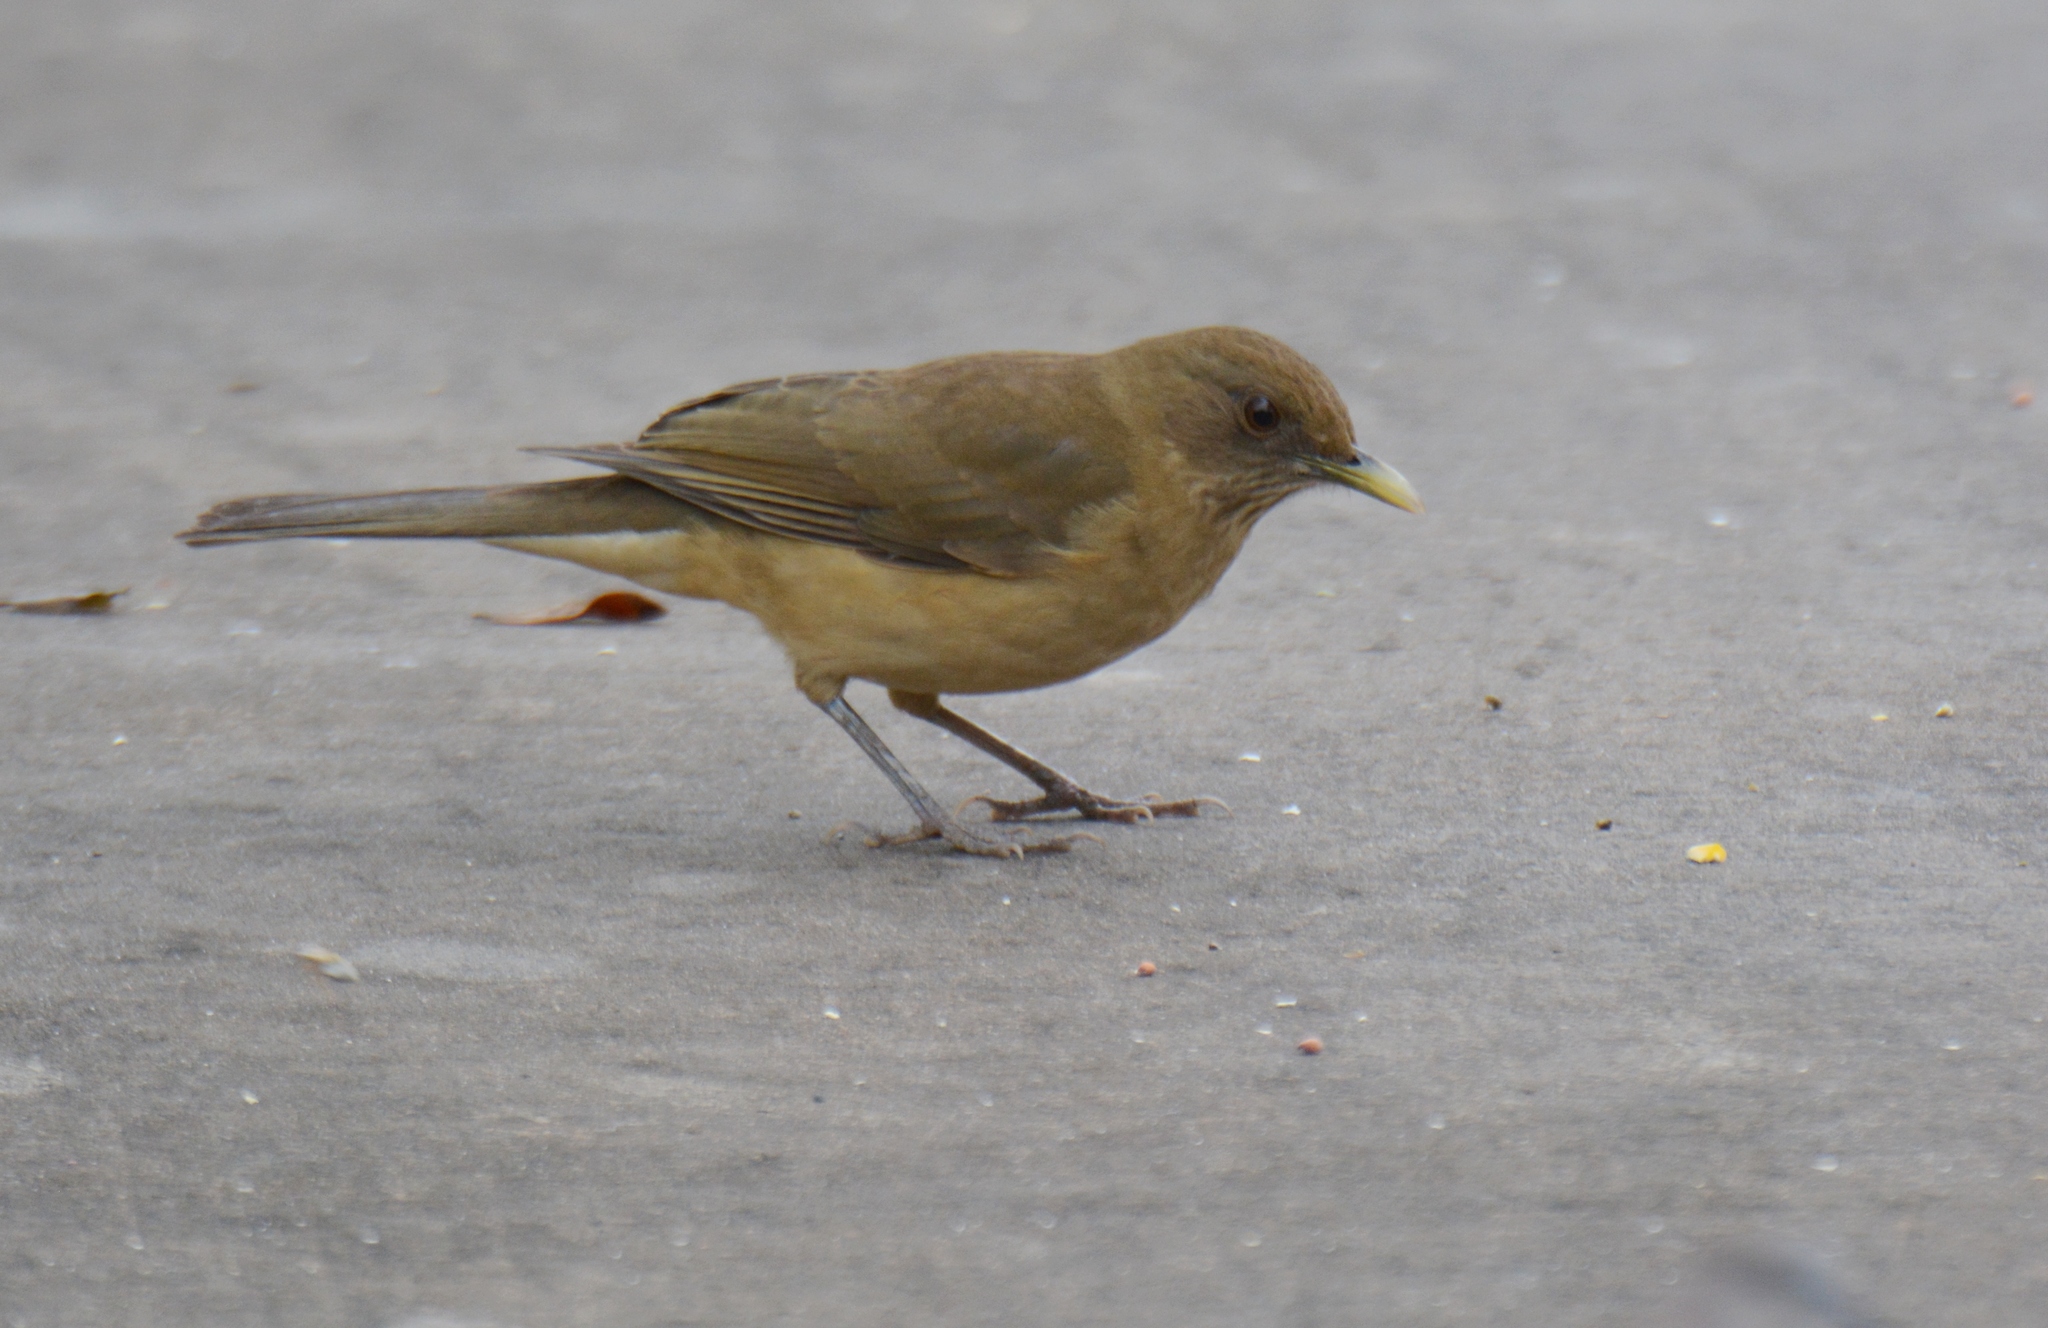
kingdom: Animalia
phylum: Chordata
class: Aves
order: Passeriformes
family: Turdidae
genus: Turdus
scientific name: Turdus grayi
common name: Clay-colored thrush
